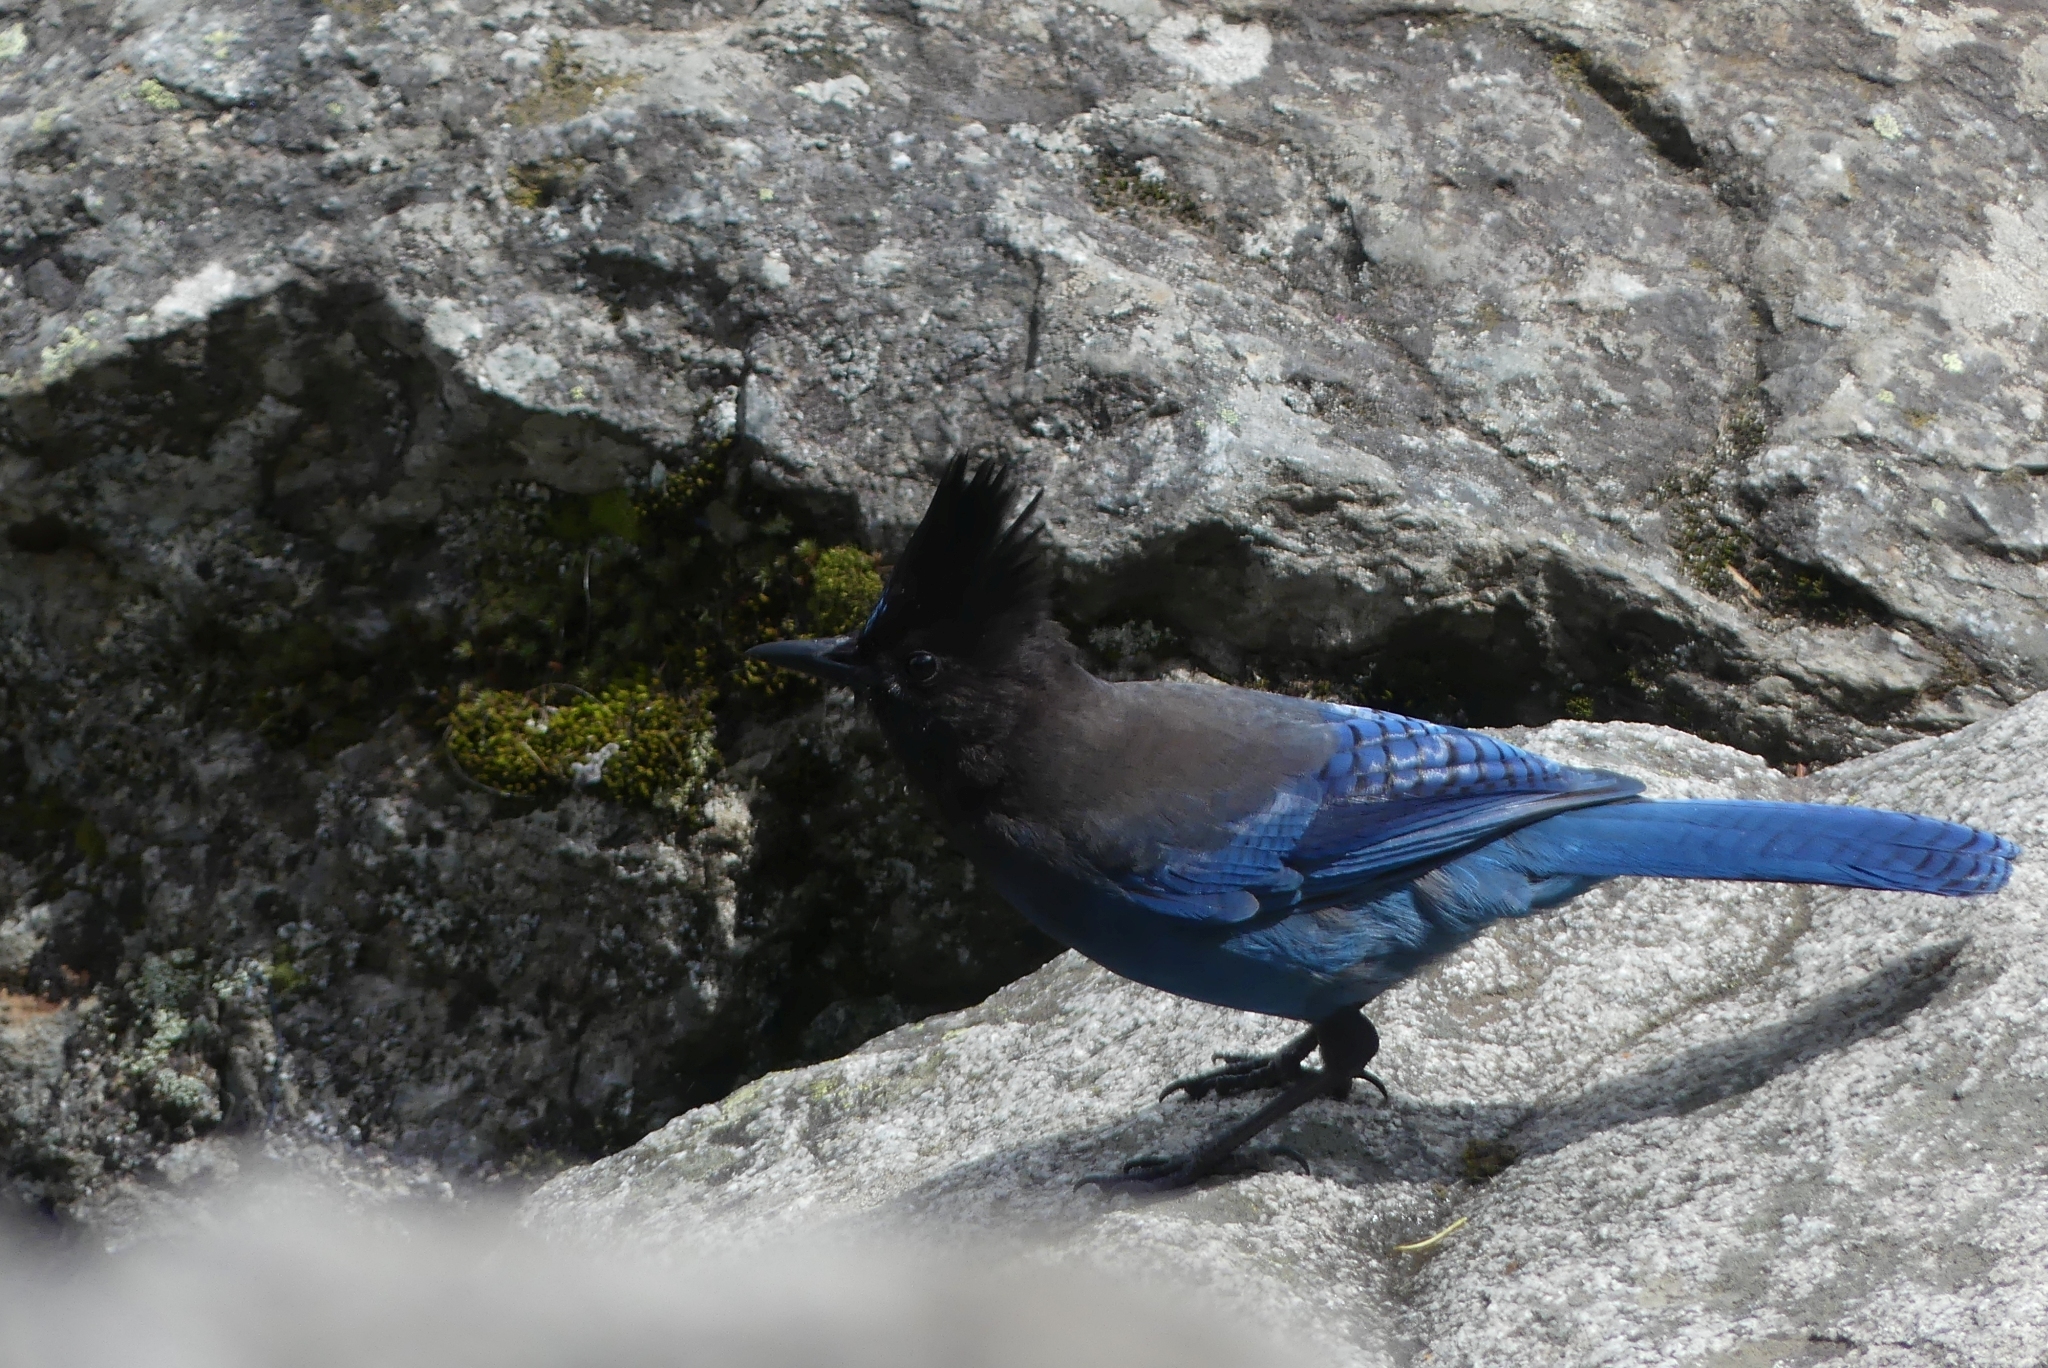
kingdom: Animalia
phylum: Chordata
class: Aves
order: Passeriformes
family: Corvidae
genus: Cyanocitta
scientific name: Cyanocitta stelleri
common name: Steller's jay
